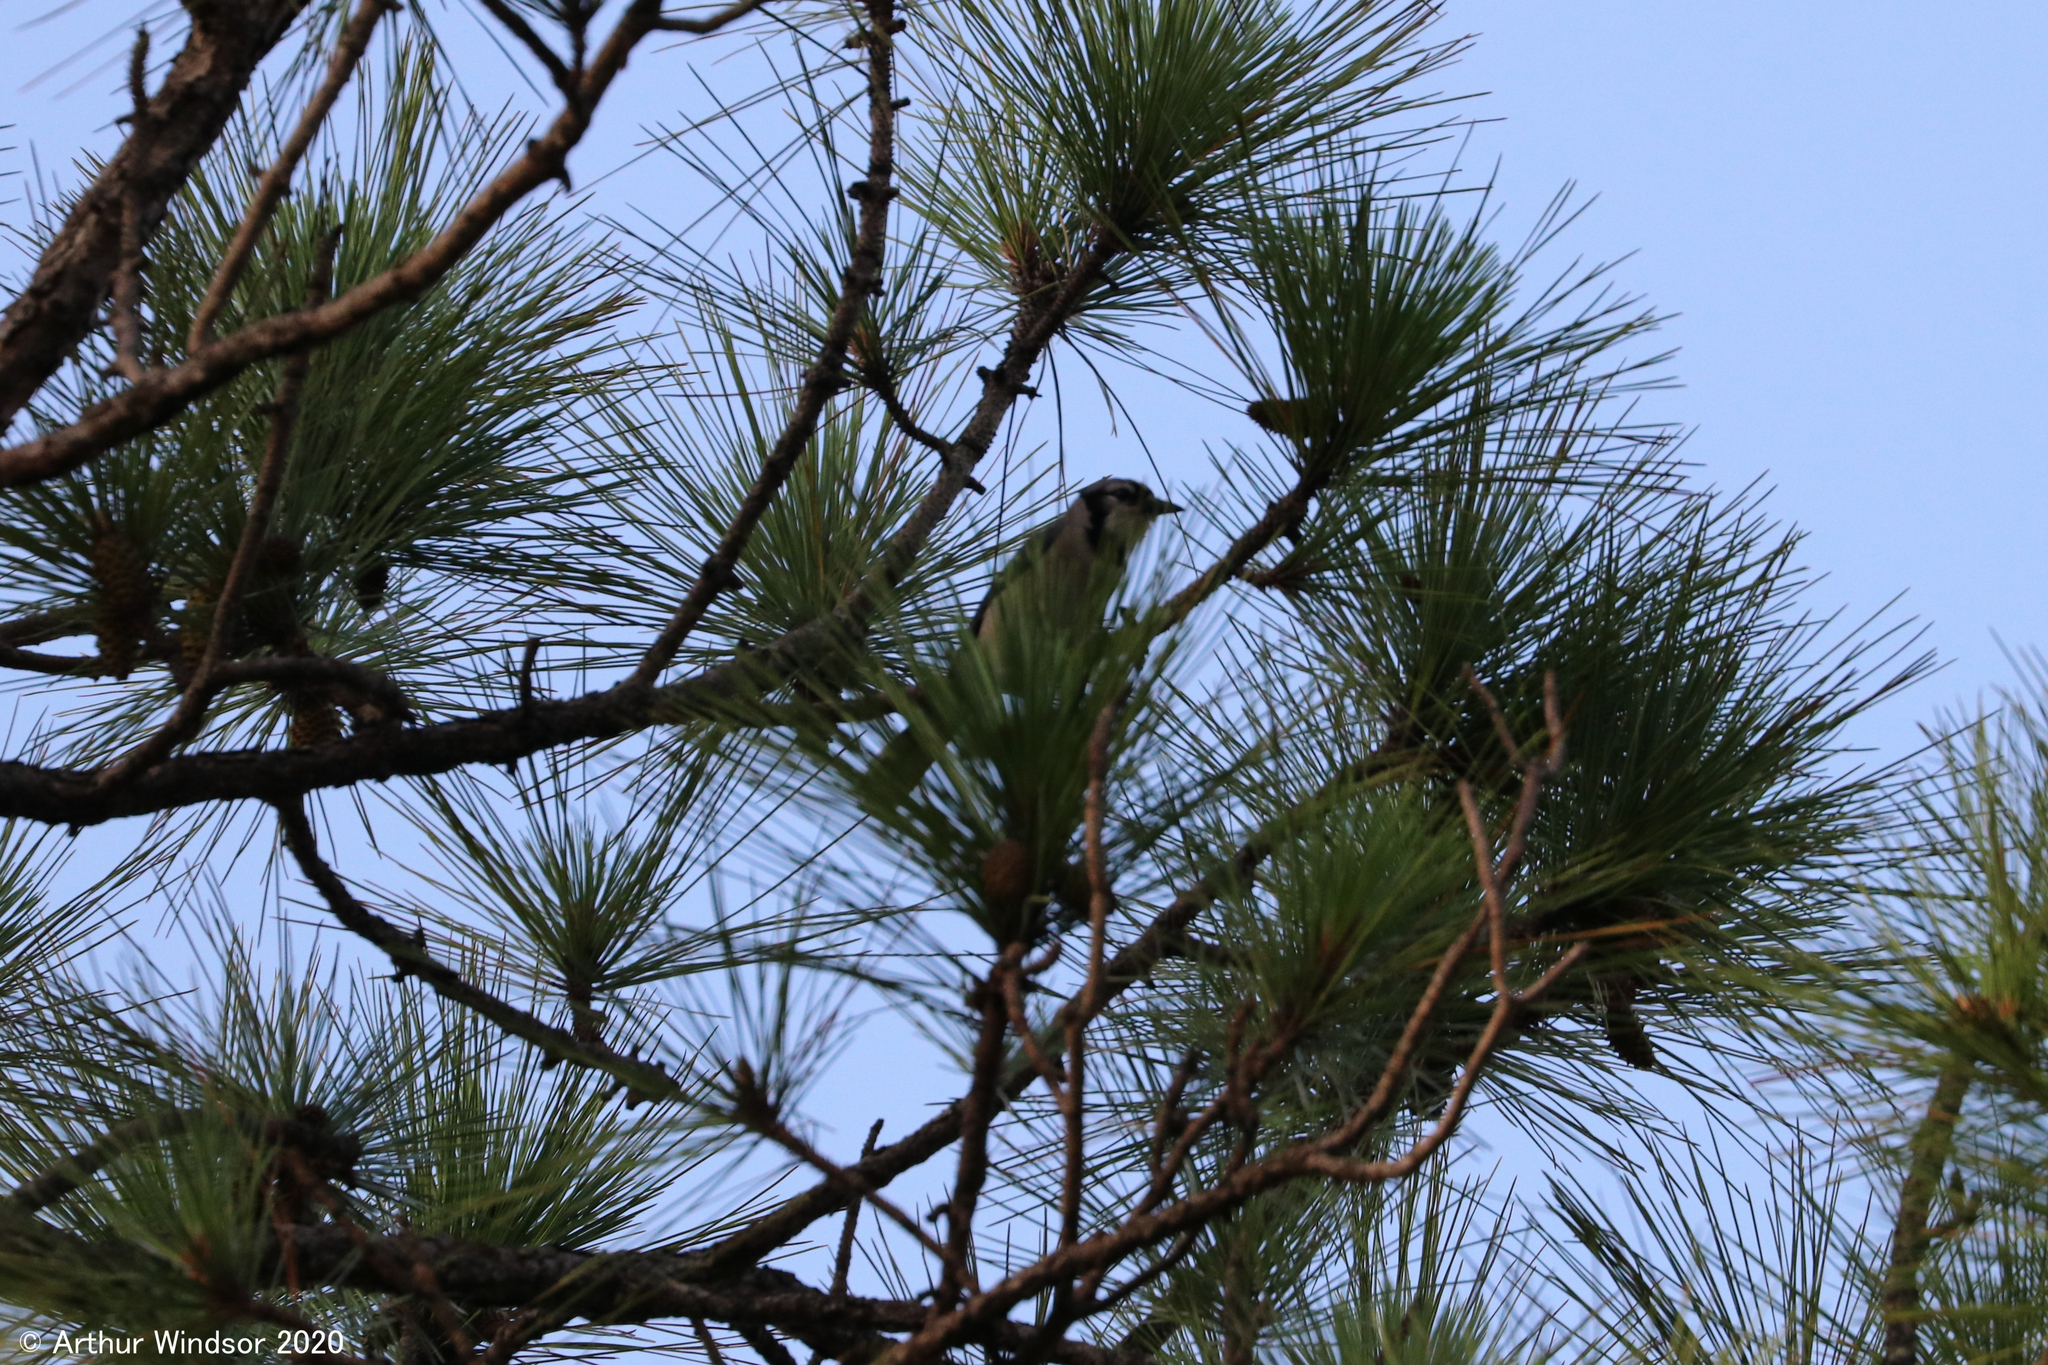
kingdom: Animalia
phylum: Chordata
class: Aves
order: Passeriformes
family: Corvidae
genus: Cyanocitta
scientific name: Cyanocitta cristata
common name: Blue jay
